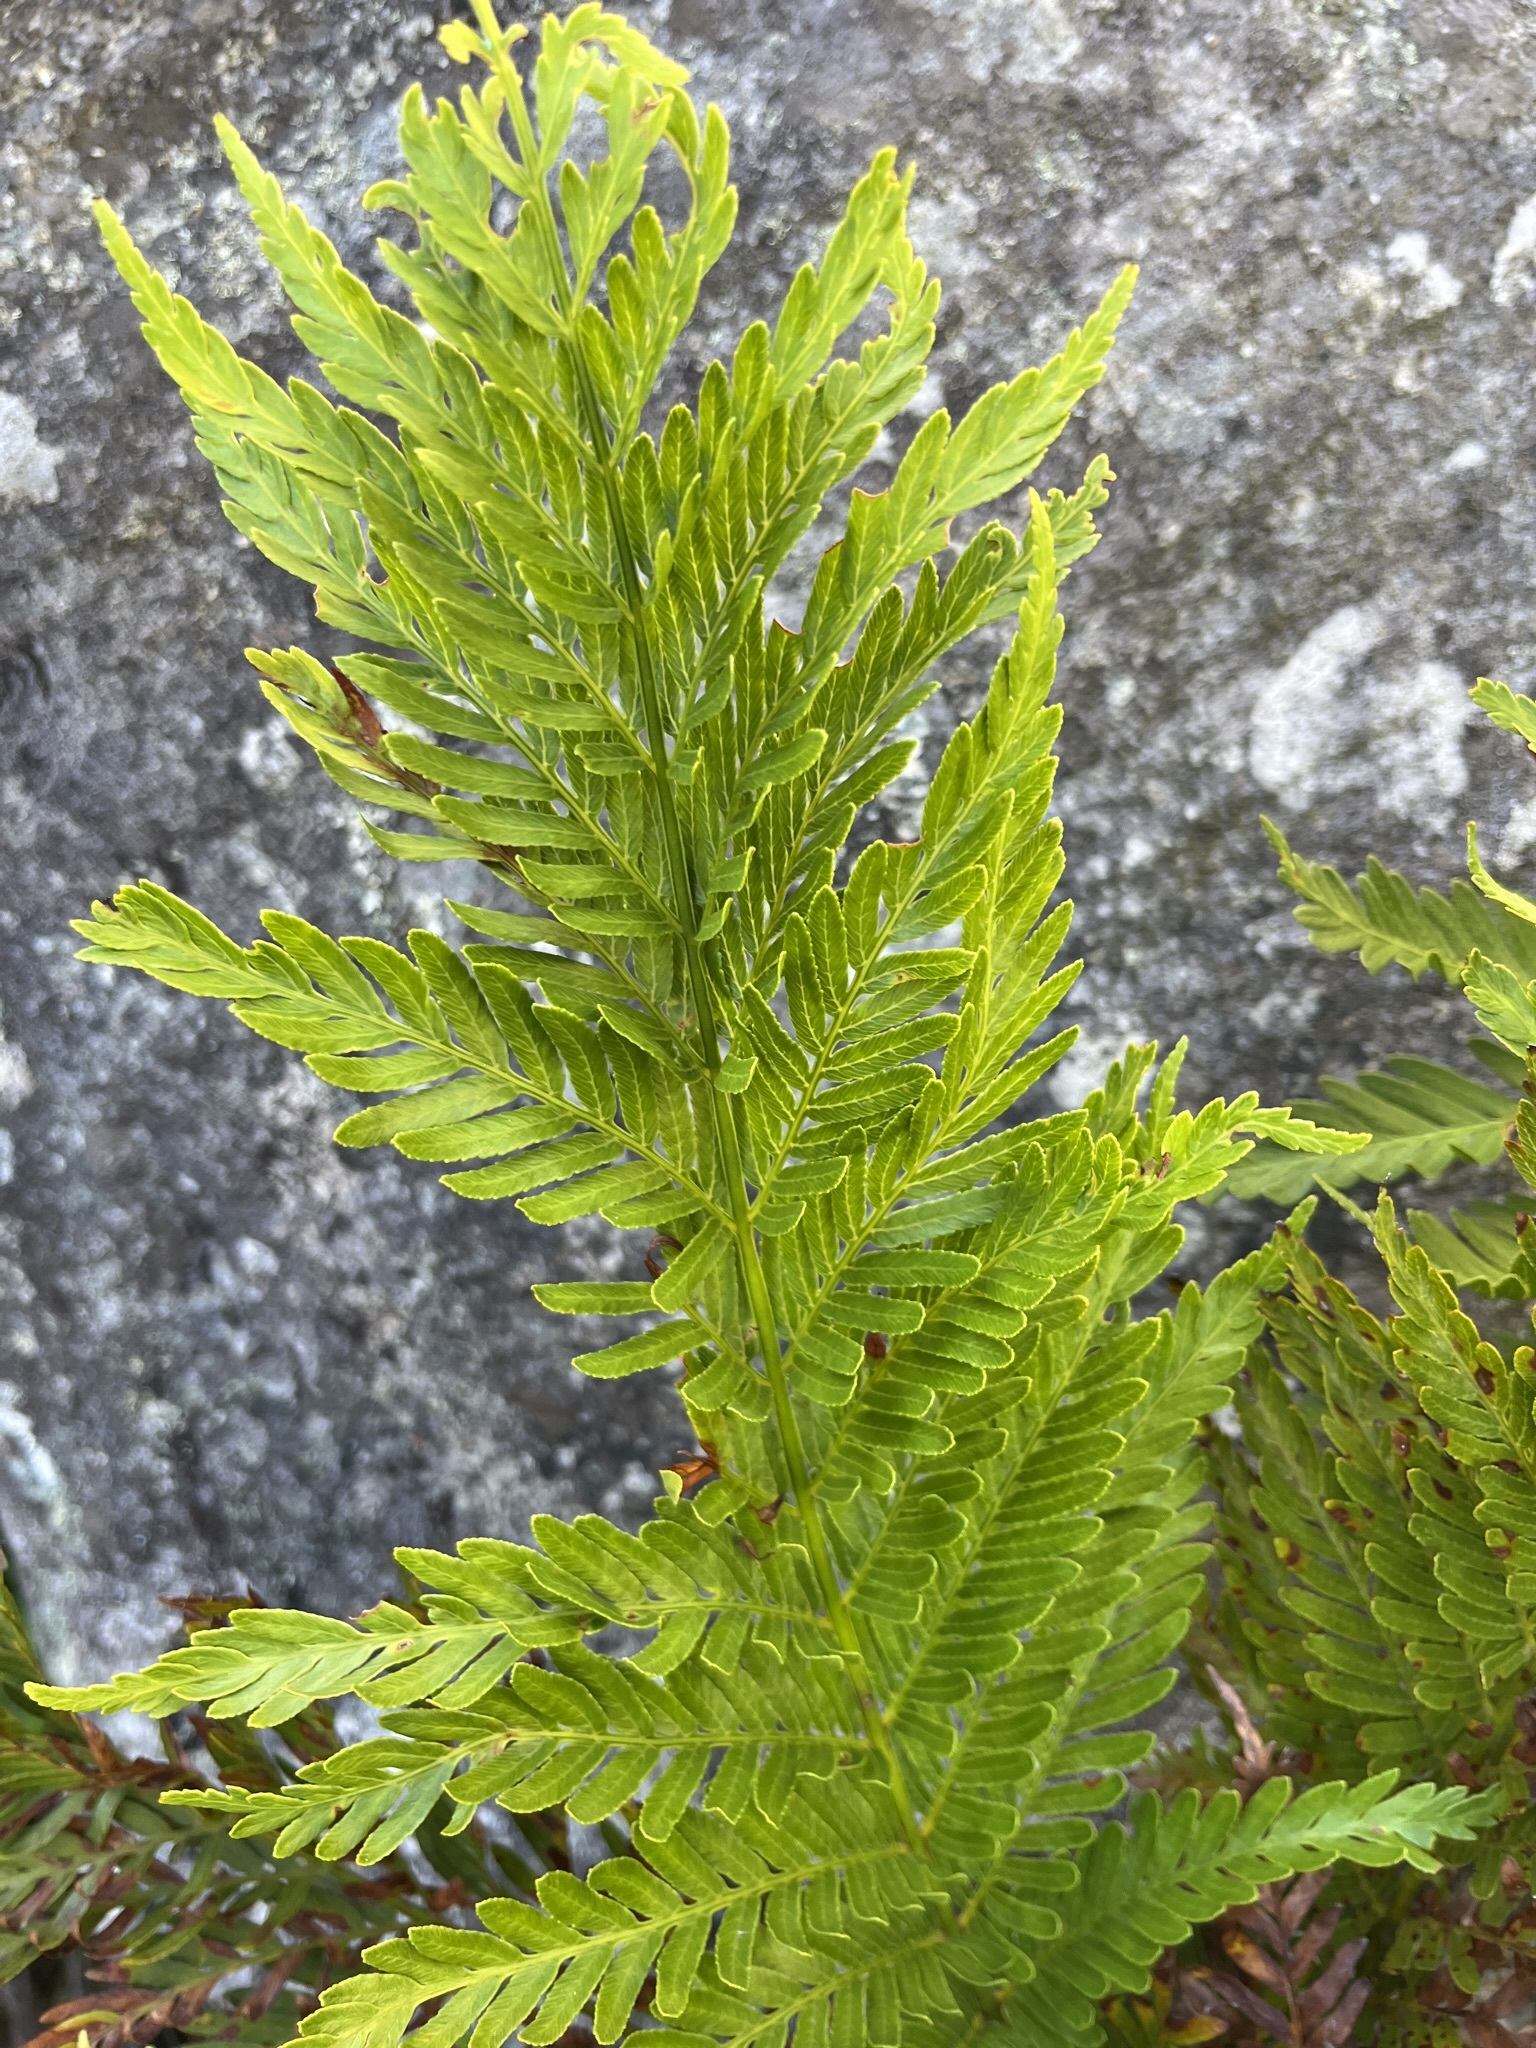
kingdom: Plantae
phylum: Tracheophyta
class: Polypodiopsida
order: Osmundales
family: Osmundaceae
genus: Todea
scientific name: Todea barbara
